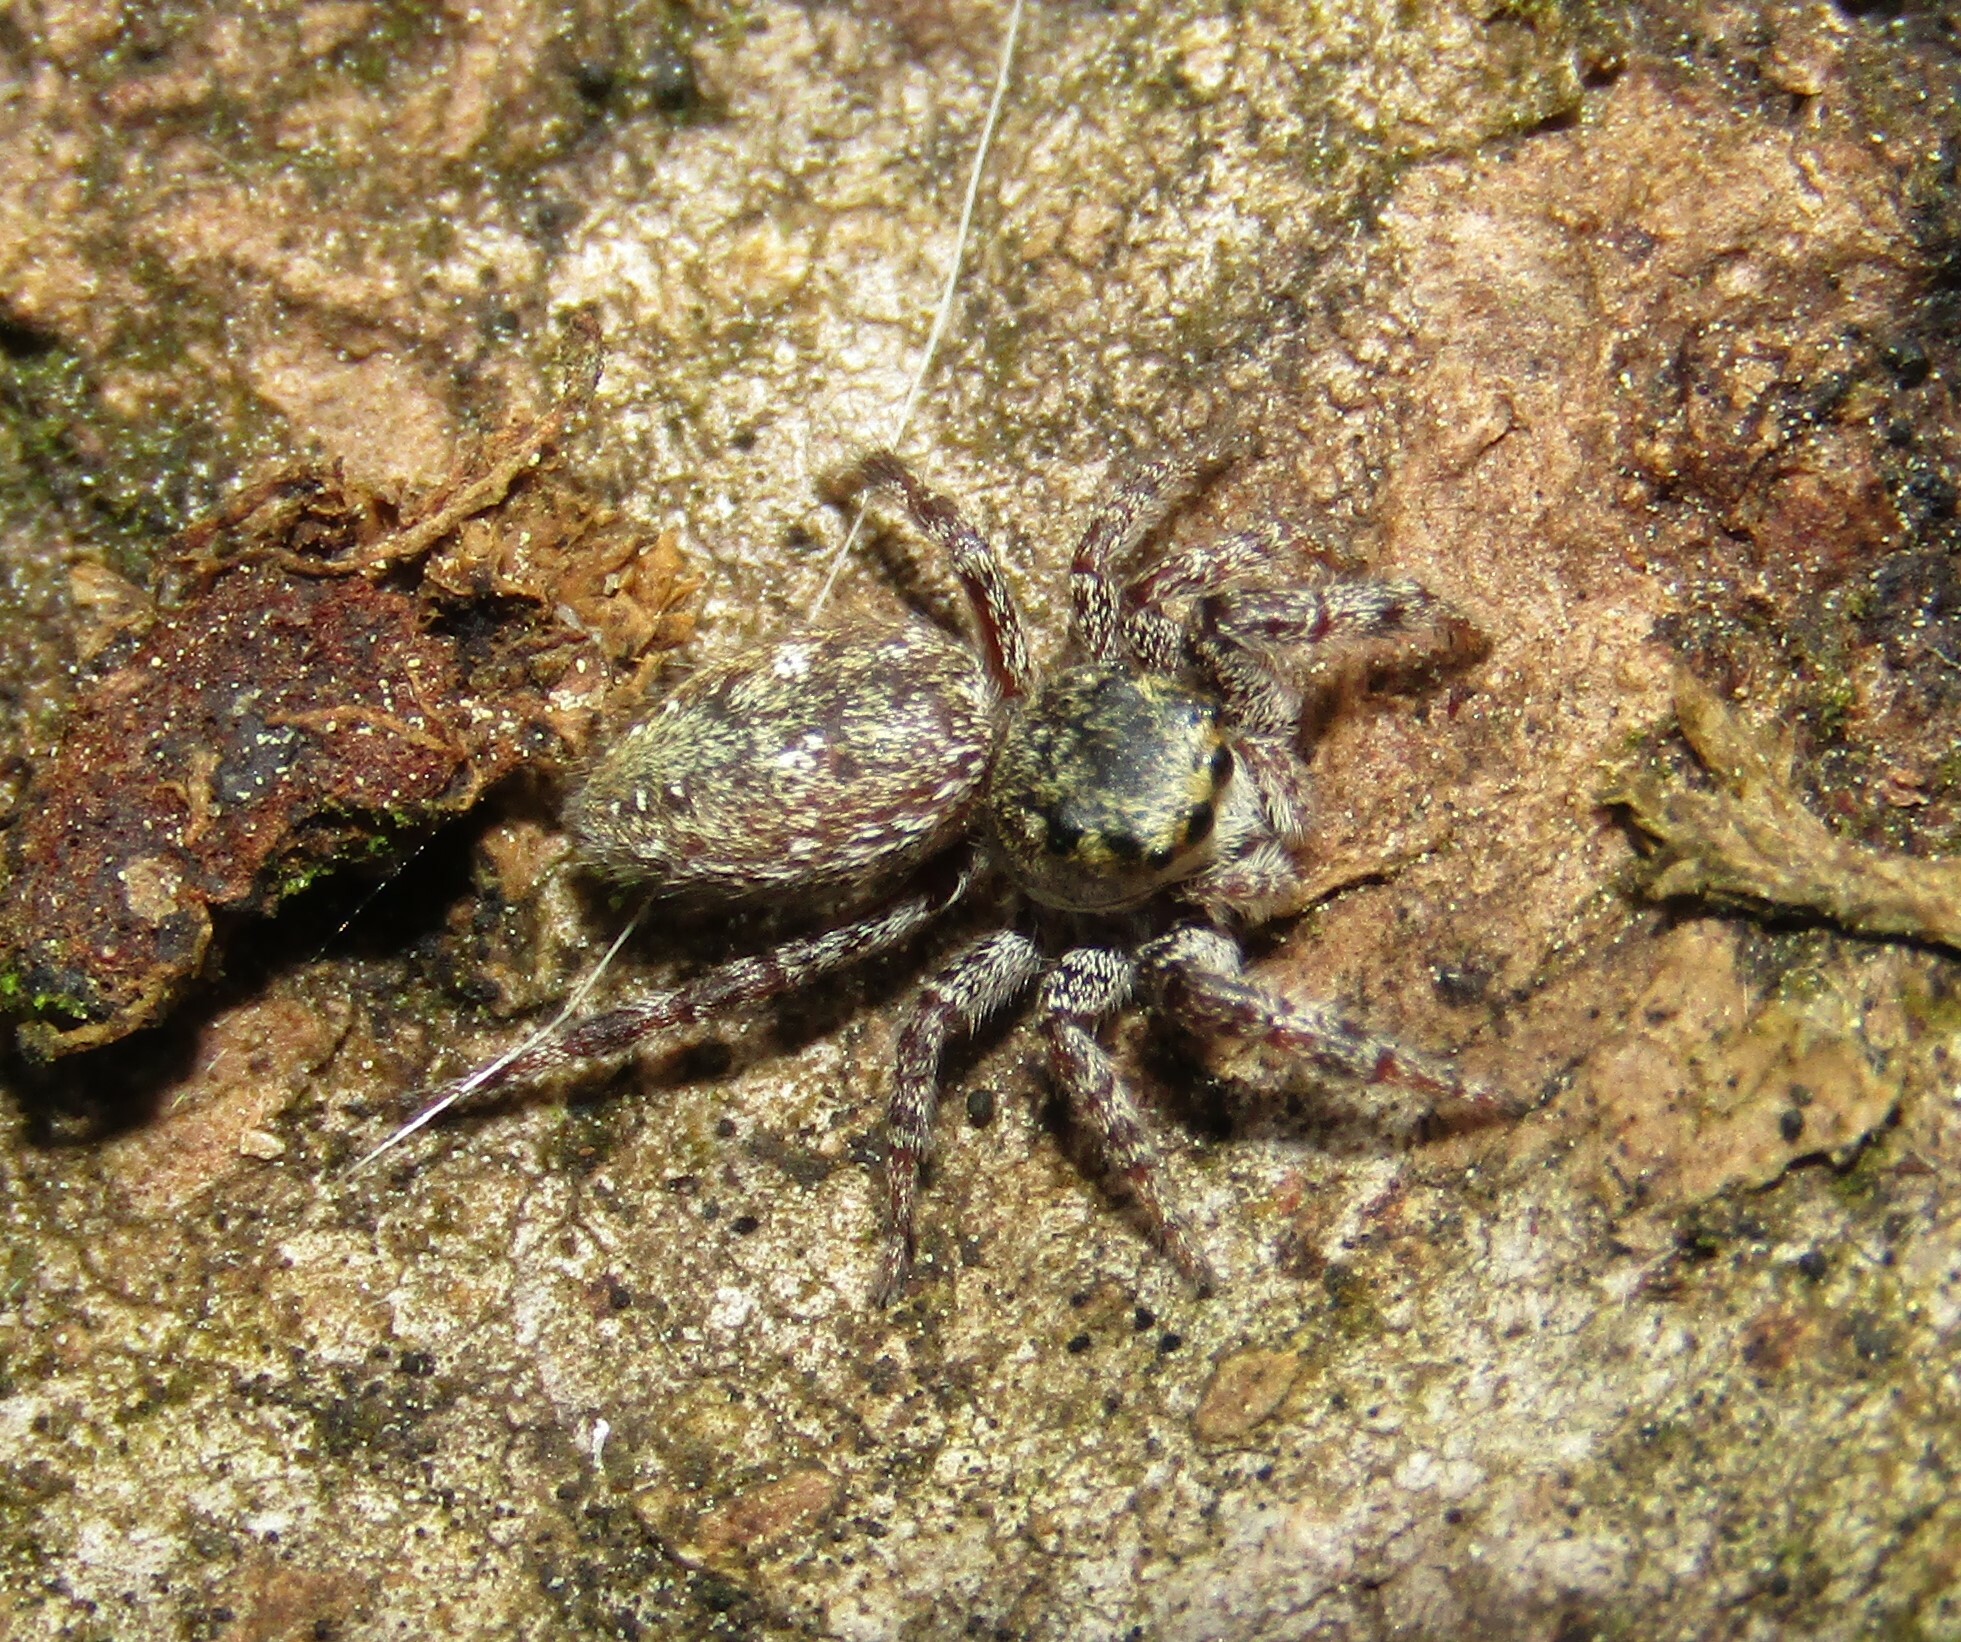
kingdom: Animalia
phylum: Arthropoda
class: Arachnida
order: Araneae
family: Salticidae
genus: Dendryphantes
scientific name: Dendryphantes rudis
